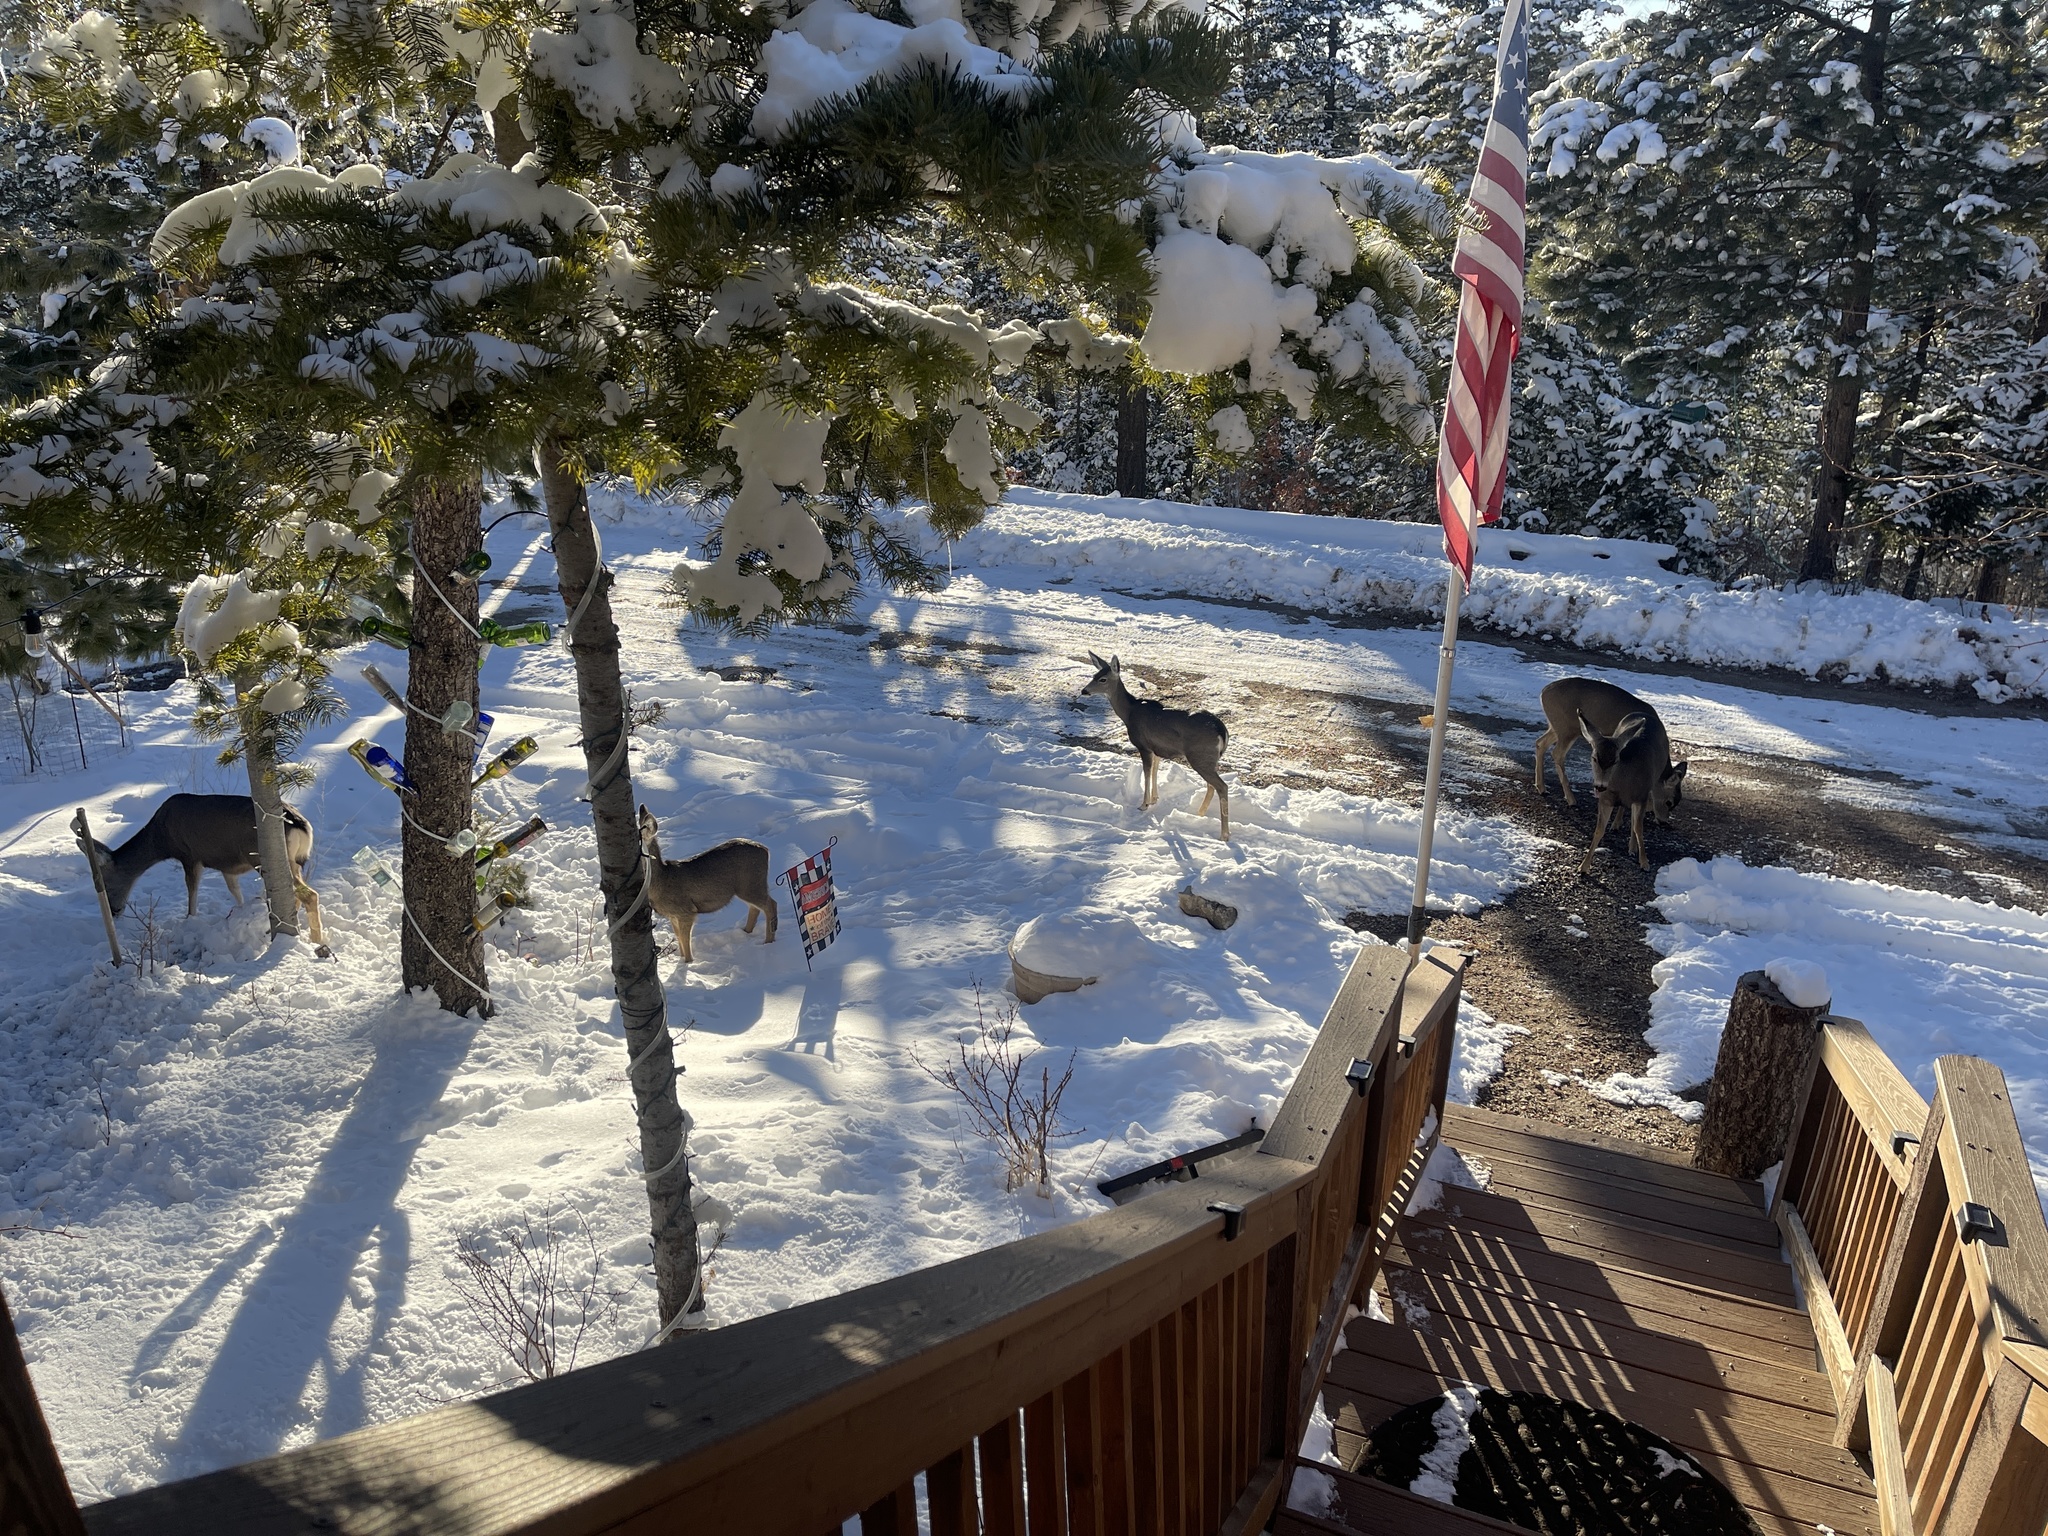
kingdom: Animalia
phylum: Chordata
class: Mammalia
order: Artiodactyla
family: Cervidae
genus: Odocoileus
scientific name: Odocoileus hemionus
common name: Mule deer
